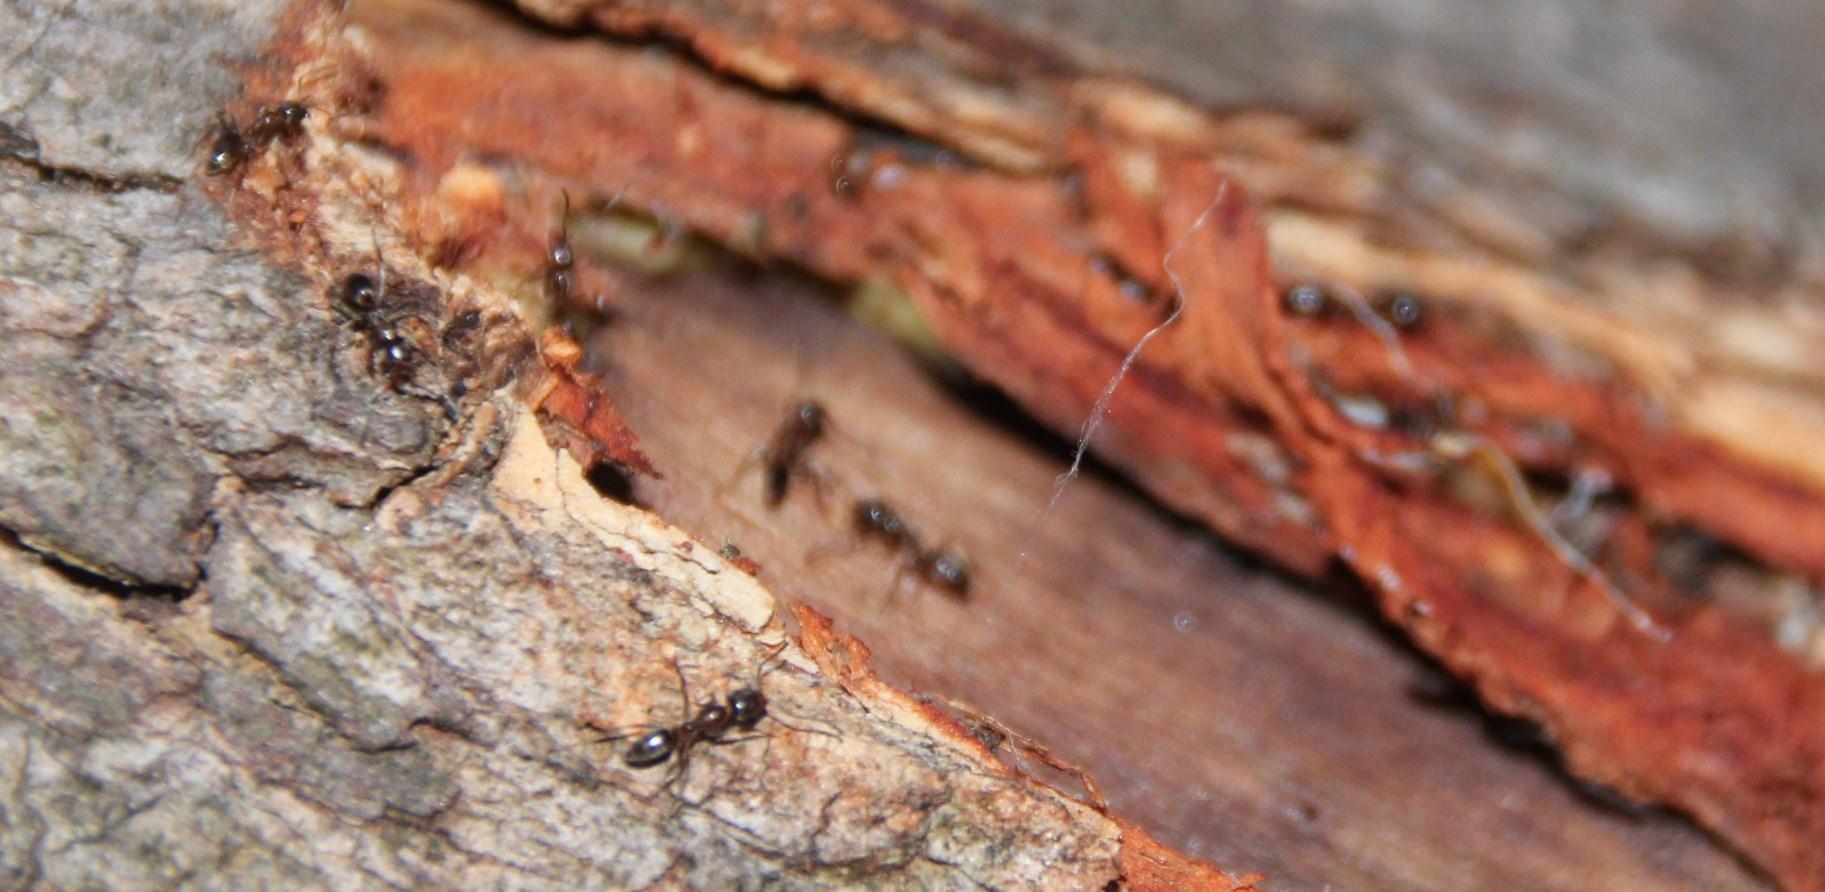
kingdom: Animalia
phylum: Arthropoda
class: Insecta
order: Hymenoptera
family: Formicidae
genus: Linepithema
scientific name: Linepithema humile
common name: Argentine ant
